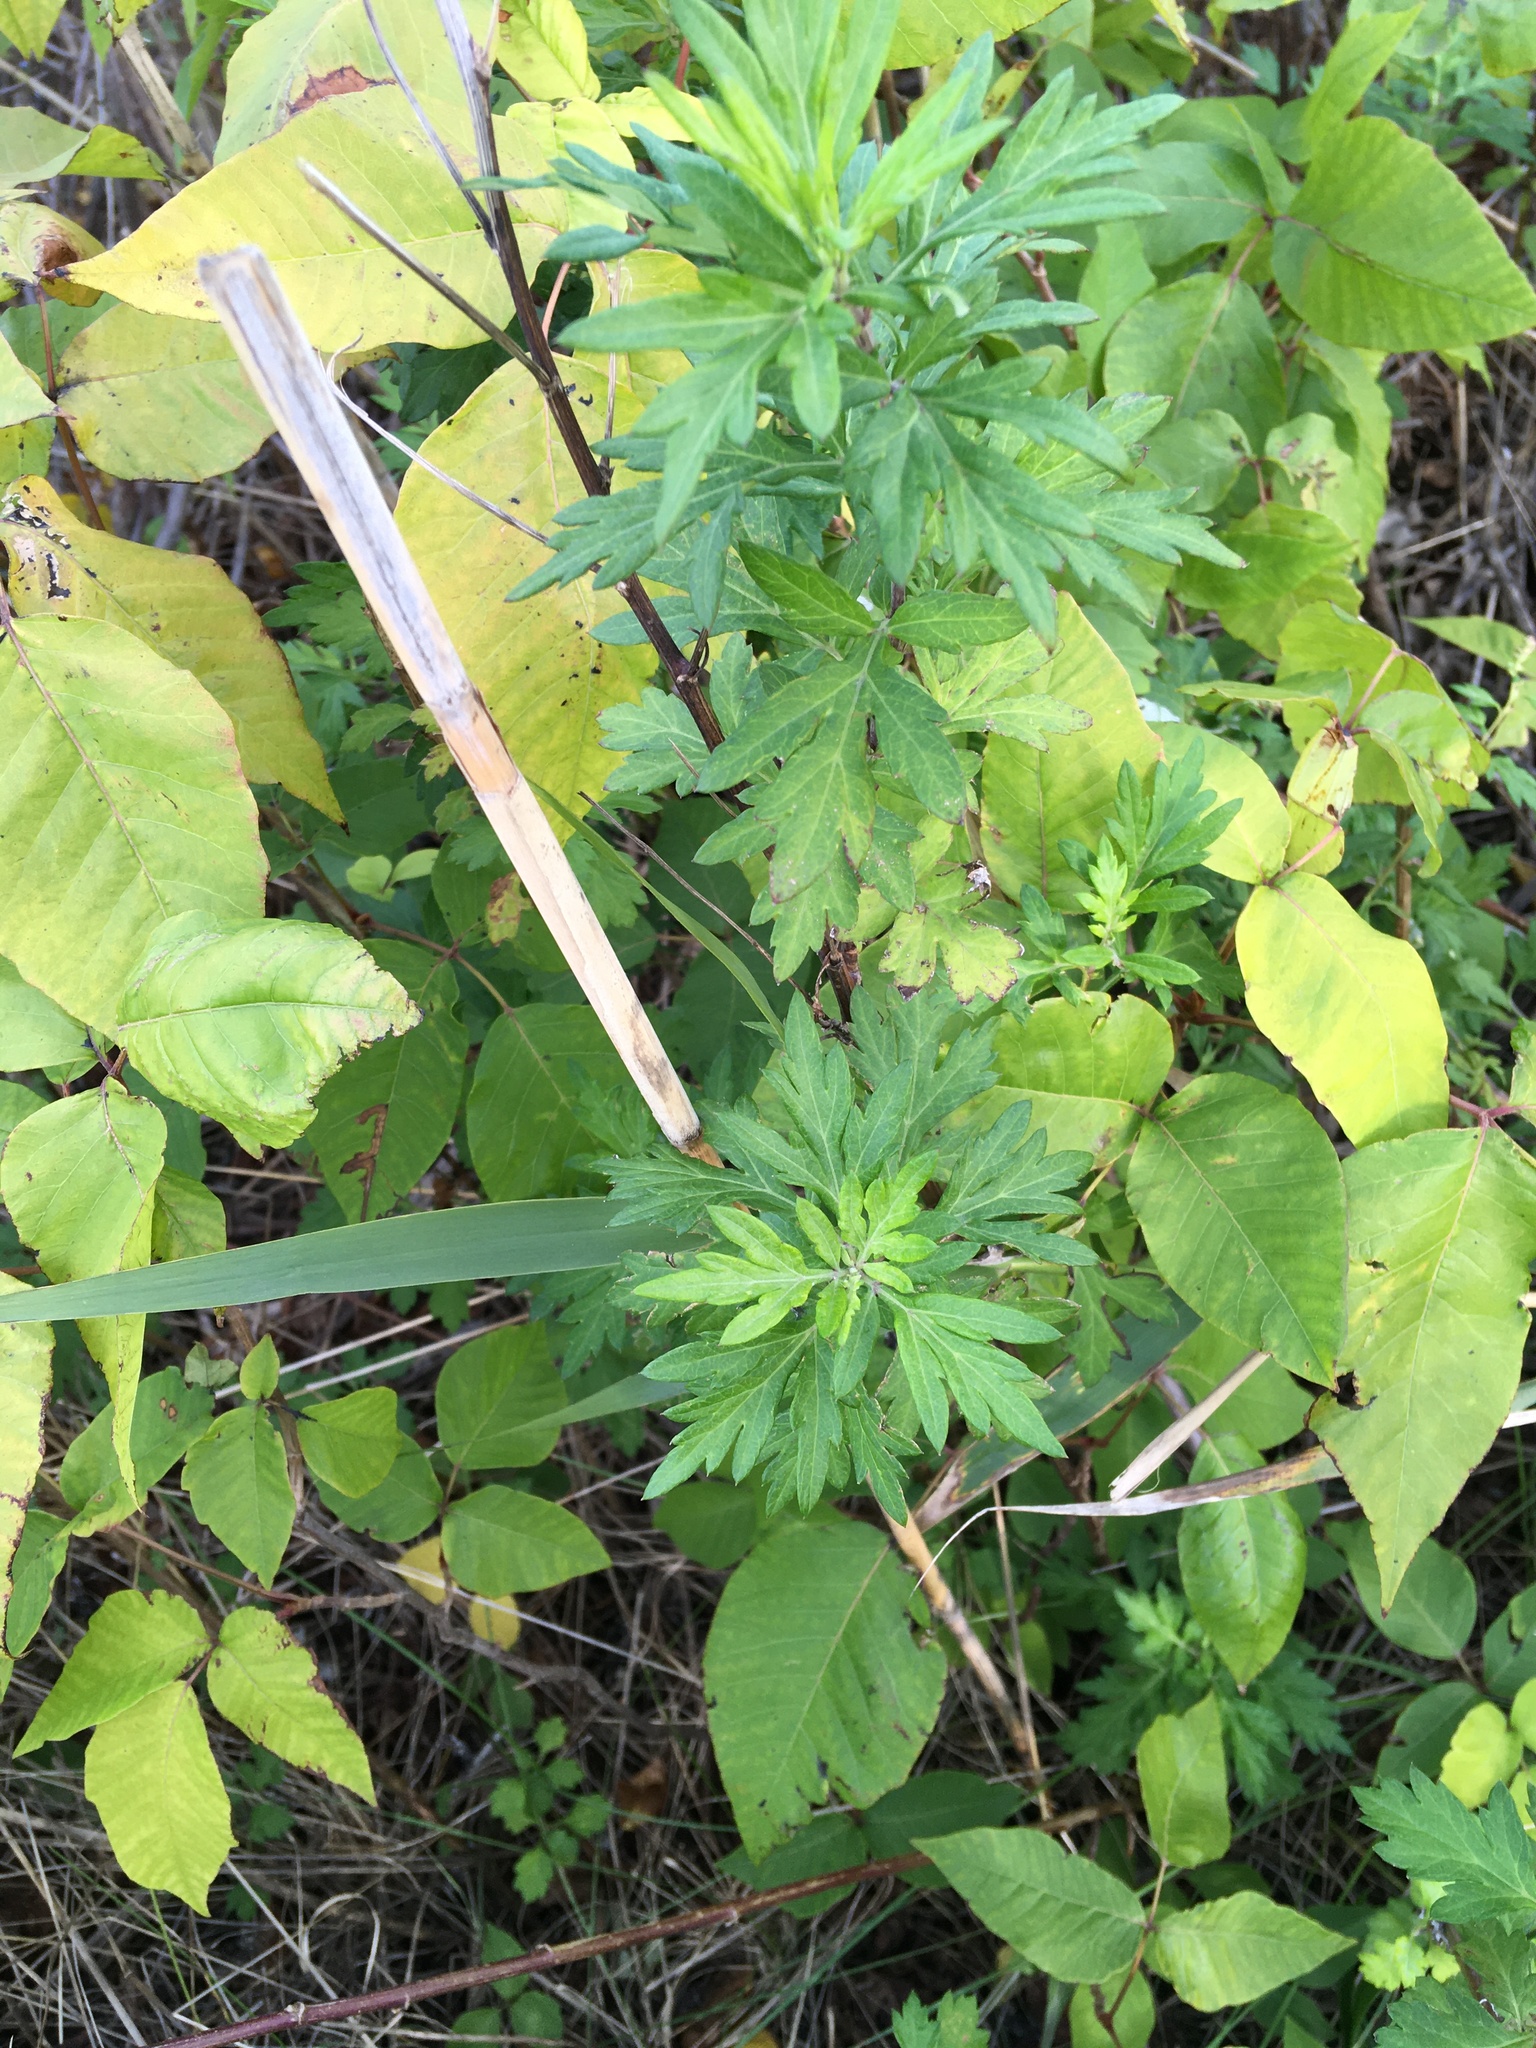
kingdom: Plantae
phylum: Tracheophyta
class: Magnoliopsida
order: Asterales
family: Asteraceae
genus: Artemisia
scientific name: Artemisia vulgaris
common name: Mugwort
